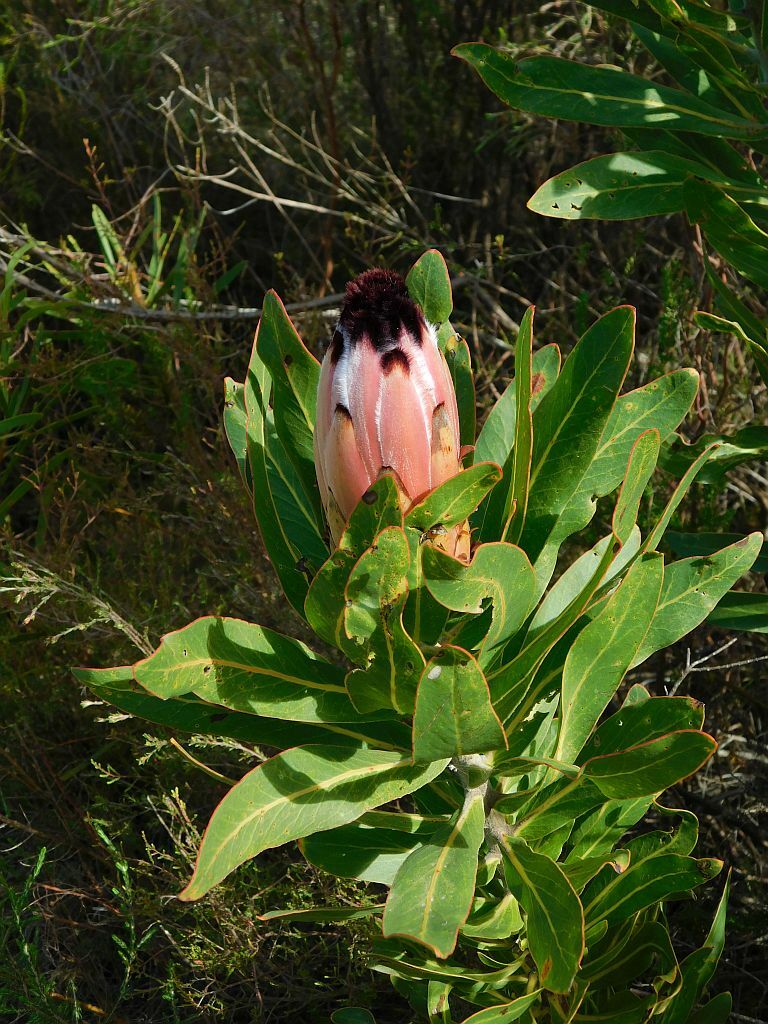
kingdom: Plantae
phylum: Tracheophyta
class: Magnoliopsida
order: Proteales
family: Proteaceae
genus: Protea
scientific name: Protea neriifolia
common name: Blue sugarbush
